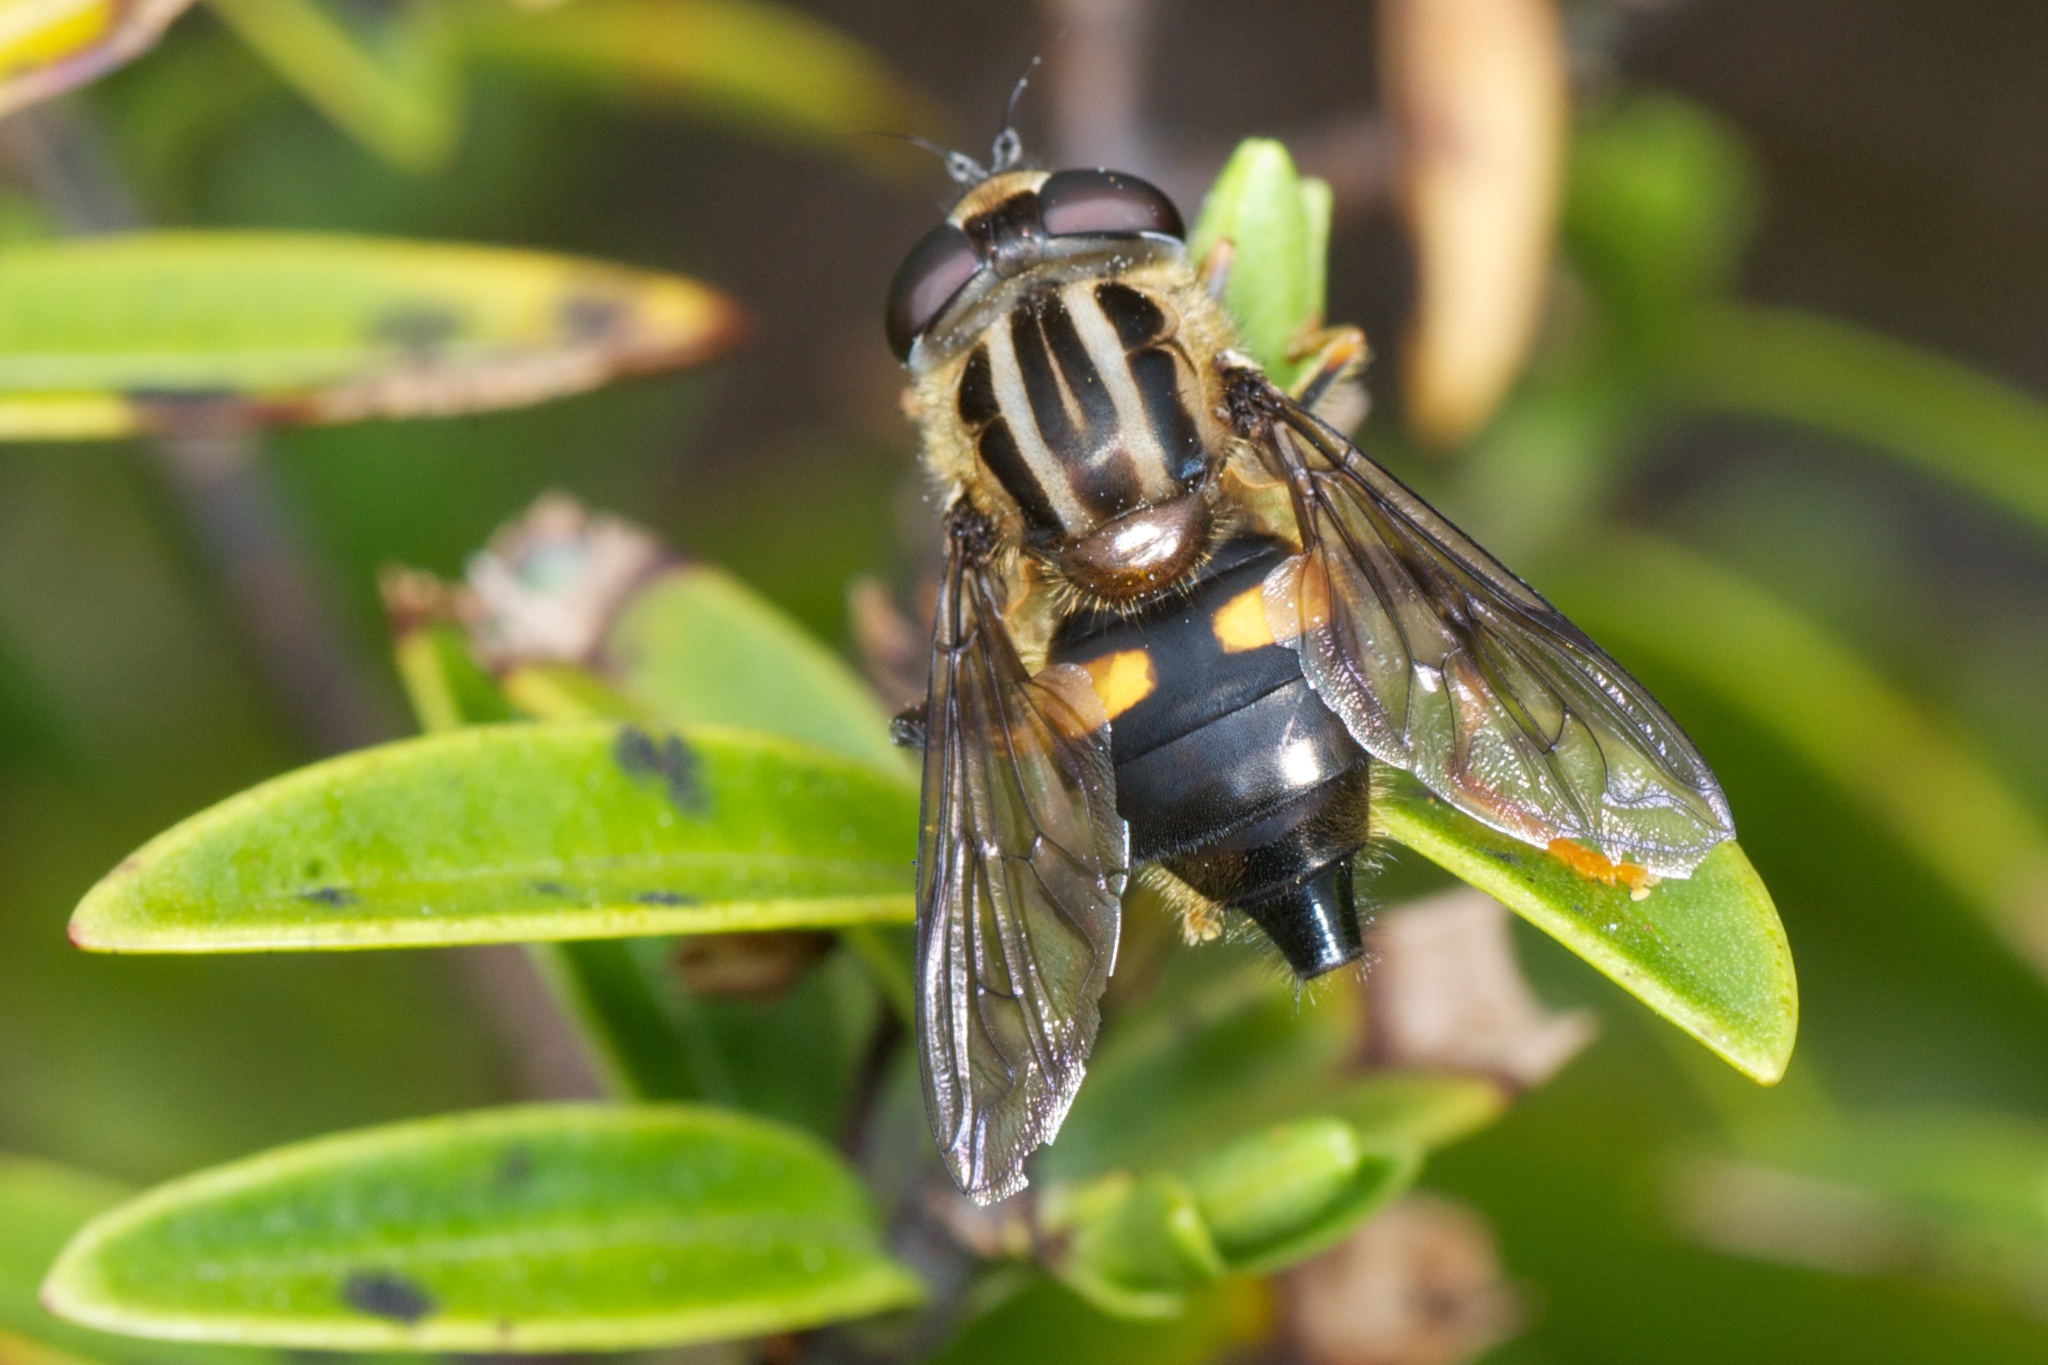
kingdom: Animalia
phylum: Arthropoda
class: Insecta
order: Diptera
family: Syrphidae
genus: Helophilus
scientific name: Helophilus antipodus
